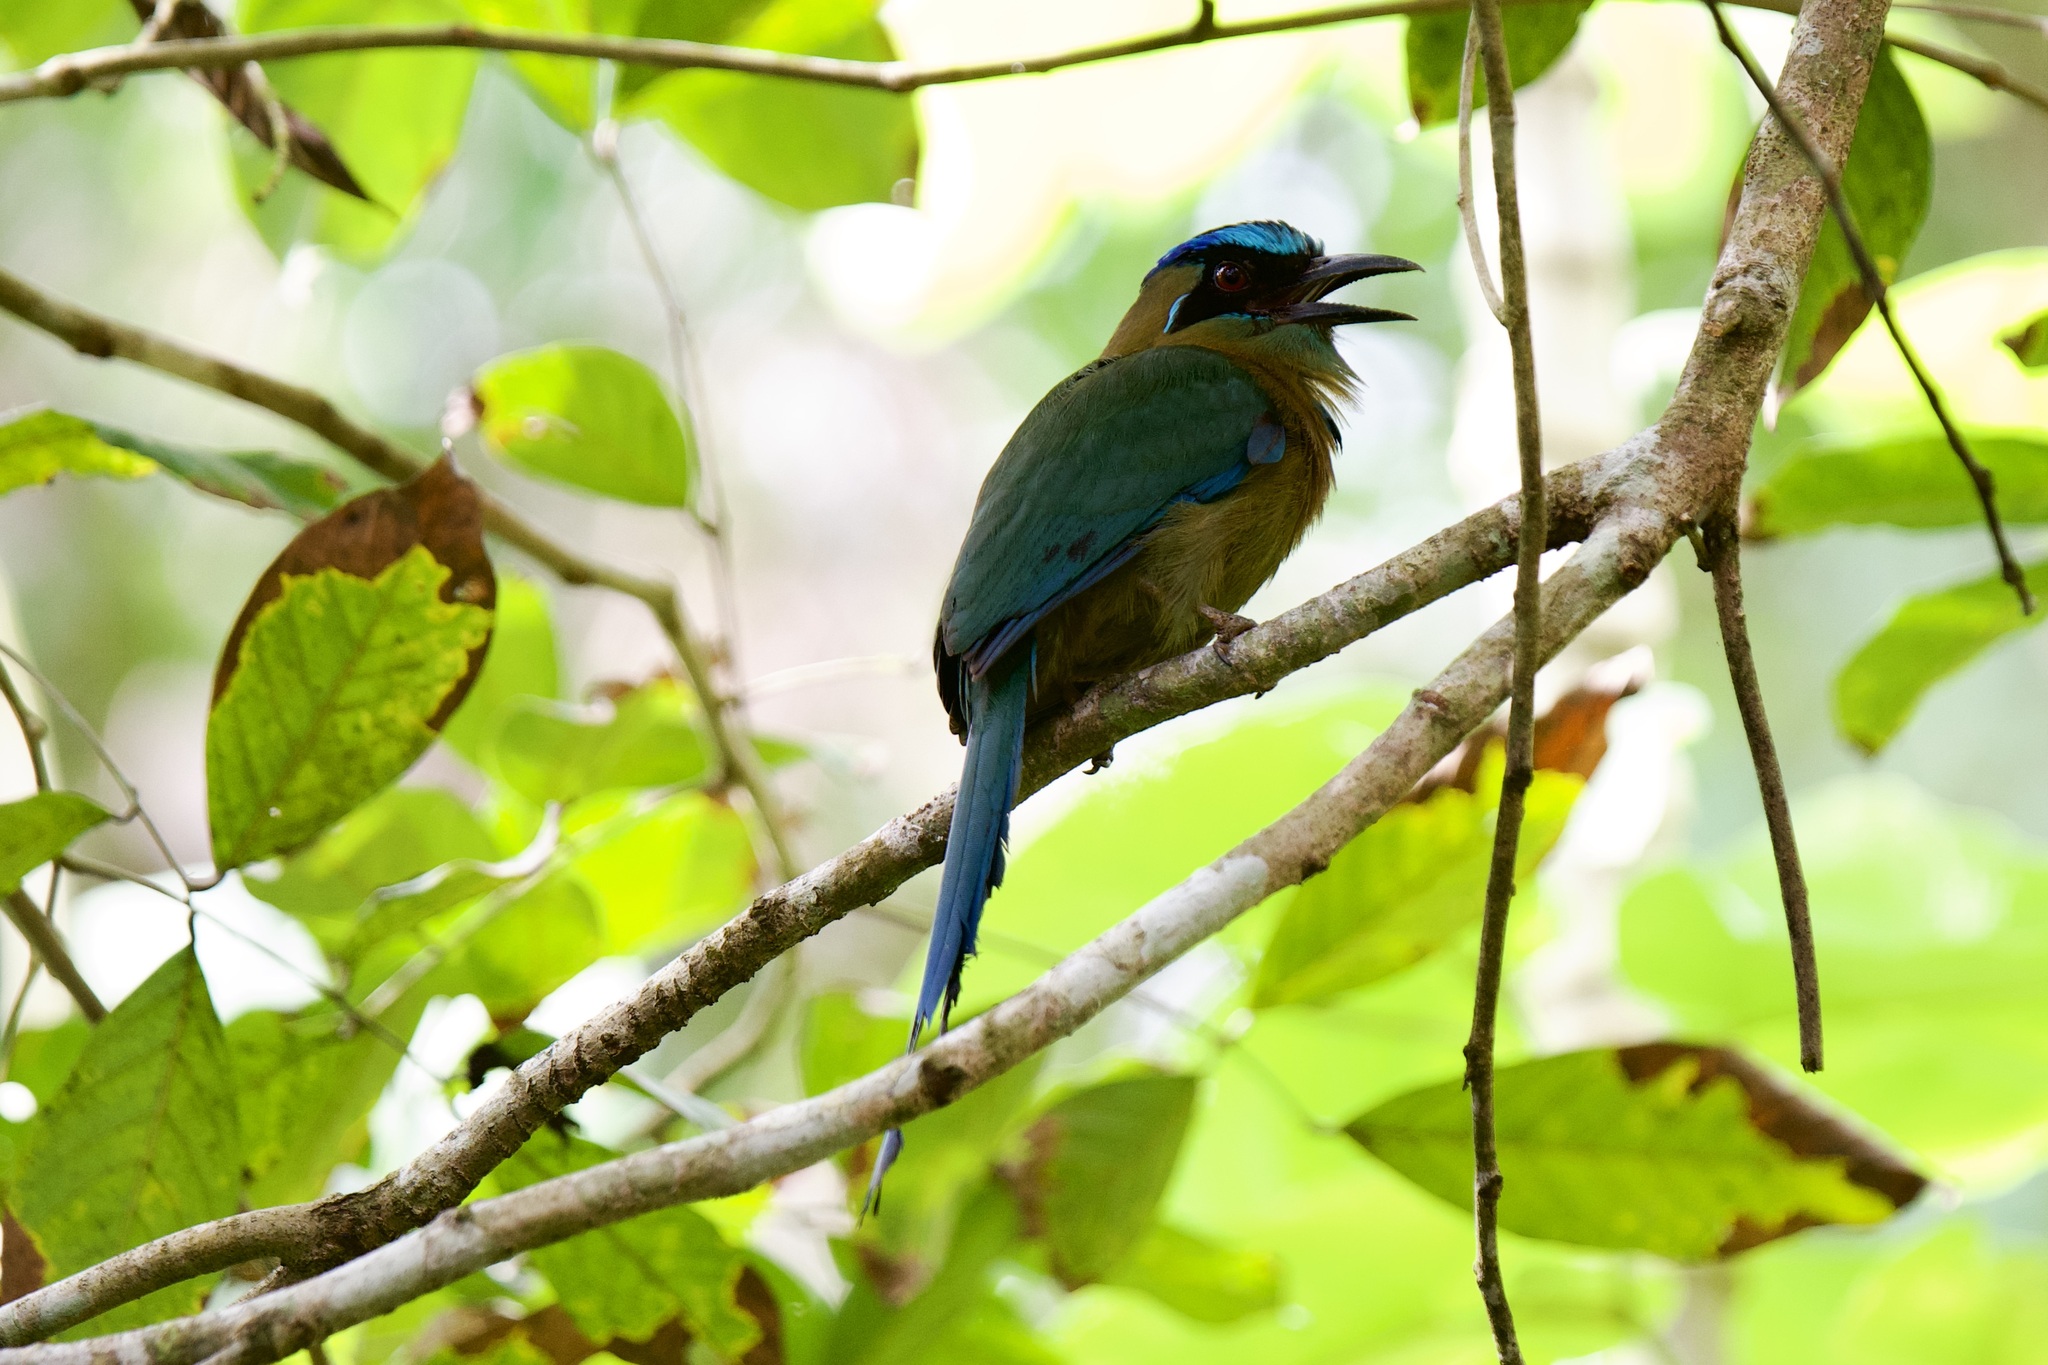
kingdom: Animalia
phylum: Chordata
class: Aves
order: Coraciiformes
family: Momotidae
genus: Momotus
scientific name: Momotus lessonii
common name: Lesson's motmot
